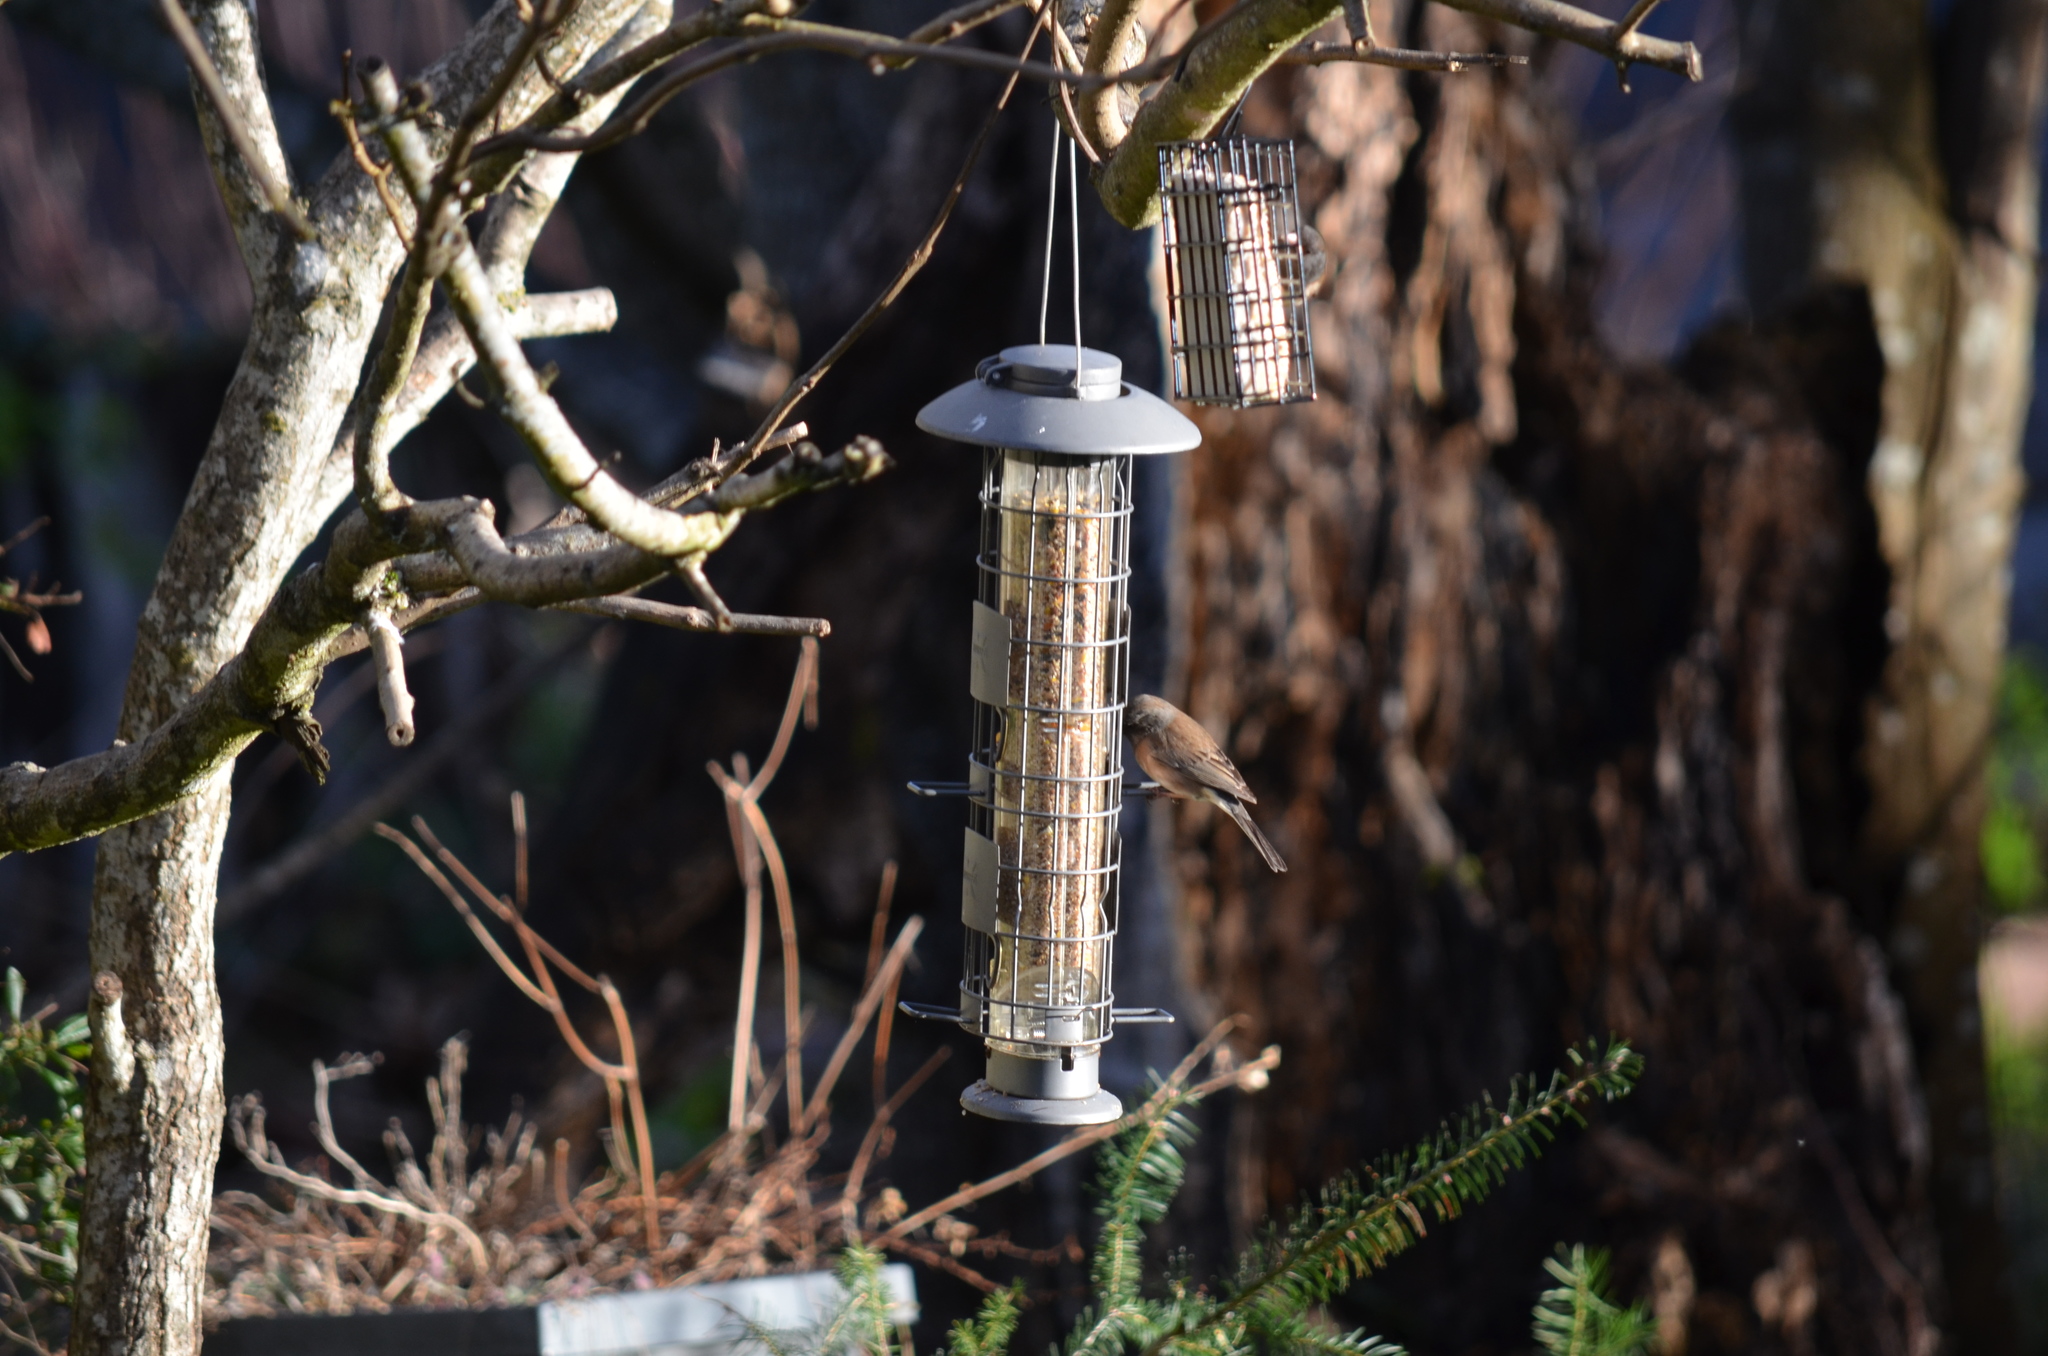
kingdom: Animalia
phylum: Chordata
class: Aves
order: Passeriformes
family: Passerellidae
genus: Junco
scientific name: Junco hyemalis
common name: Dark-eyed junco
